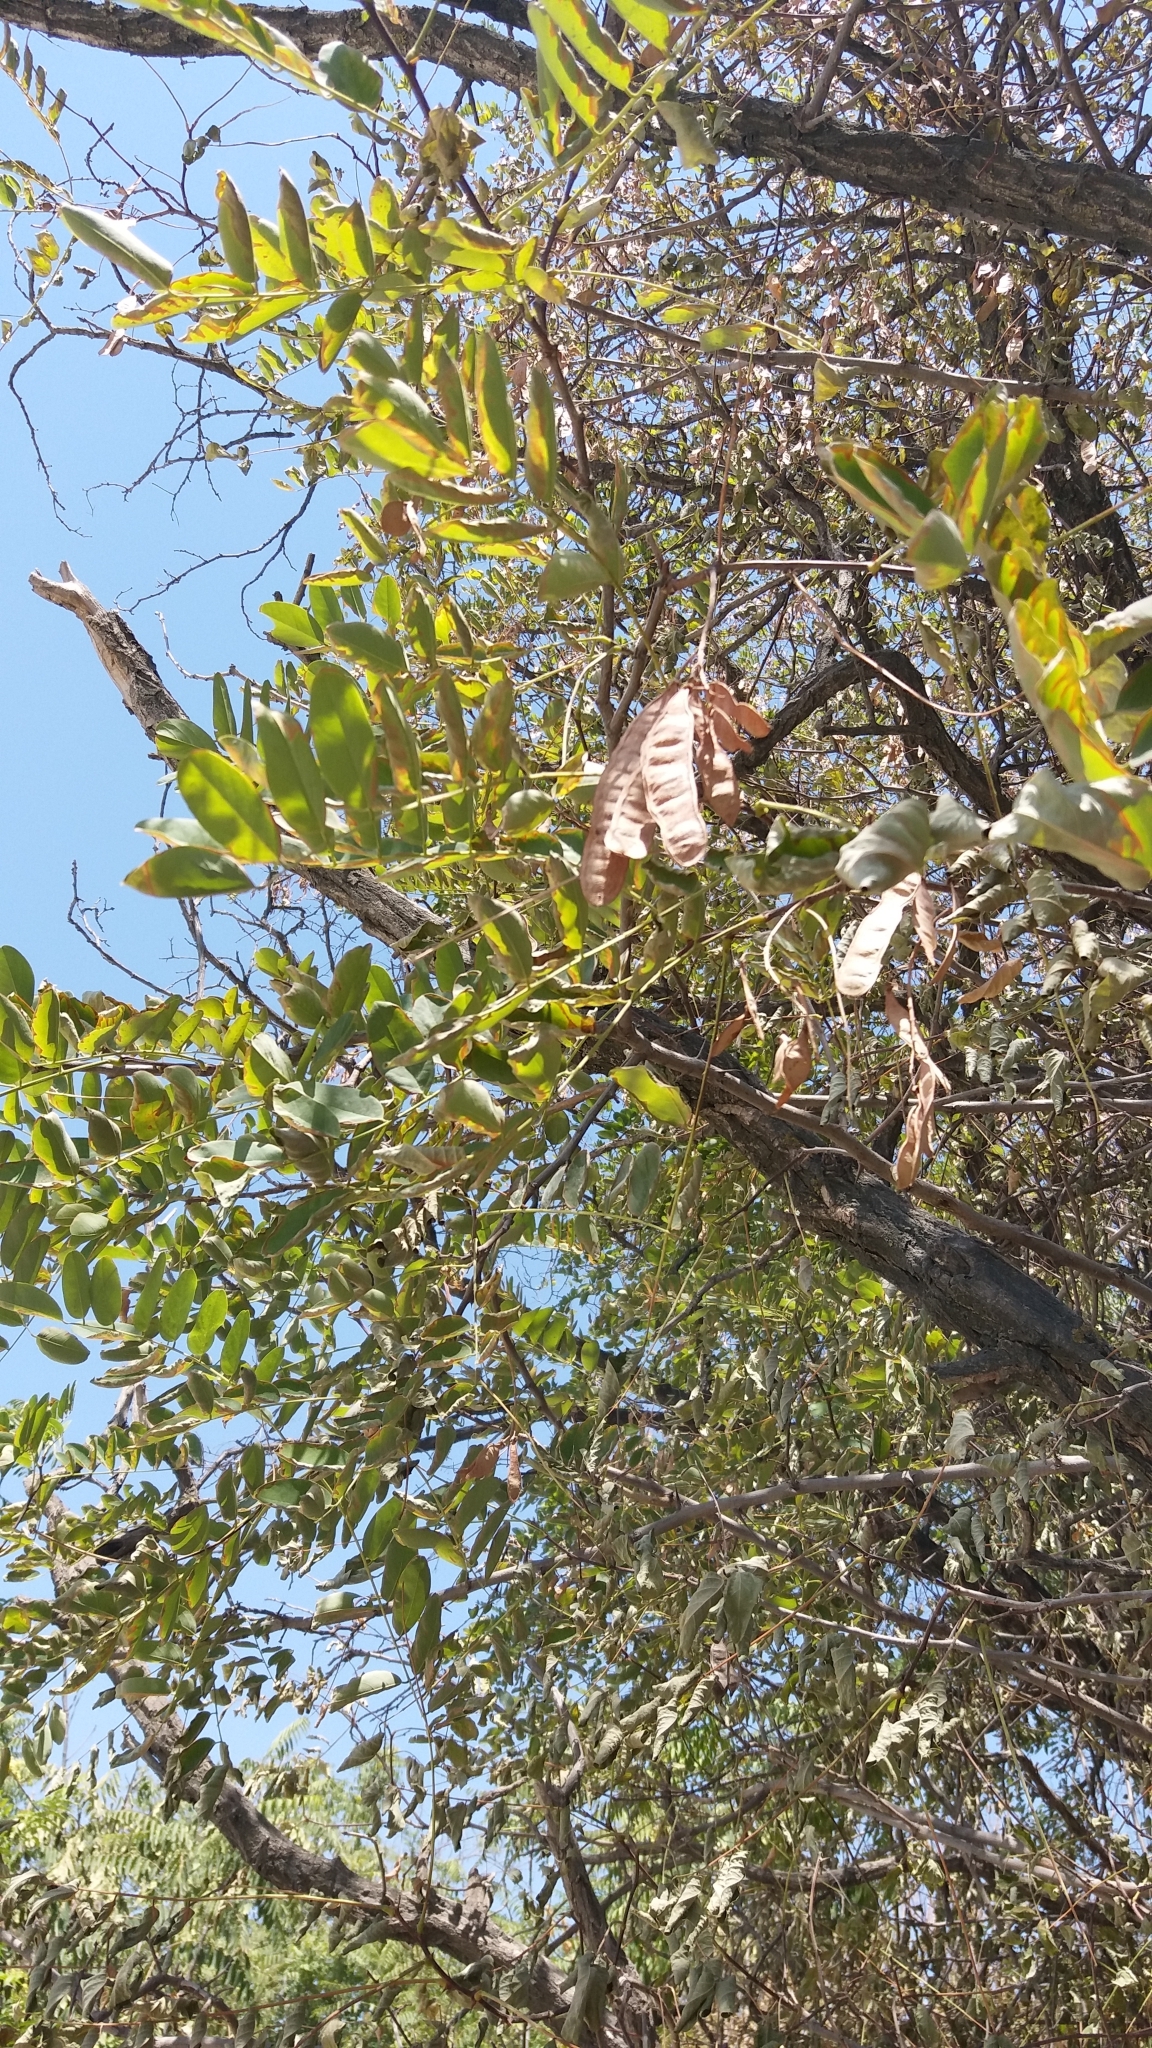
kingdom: Plantae
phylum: Tracheophyta
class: Magnoliopsida
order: Fabales
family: Fabaceae
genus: Robinia
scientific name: Robinia pseudoacacia
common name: Black locust
